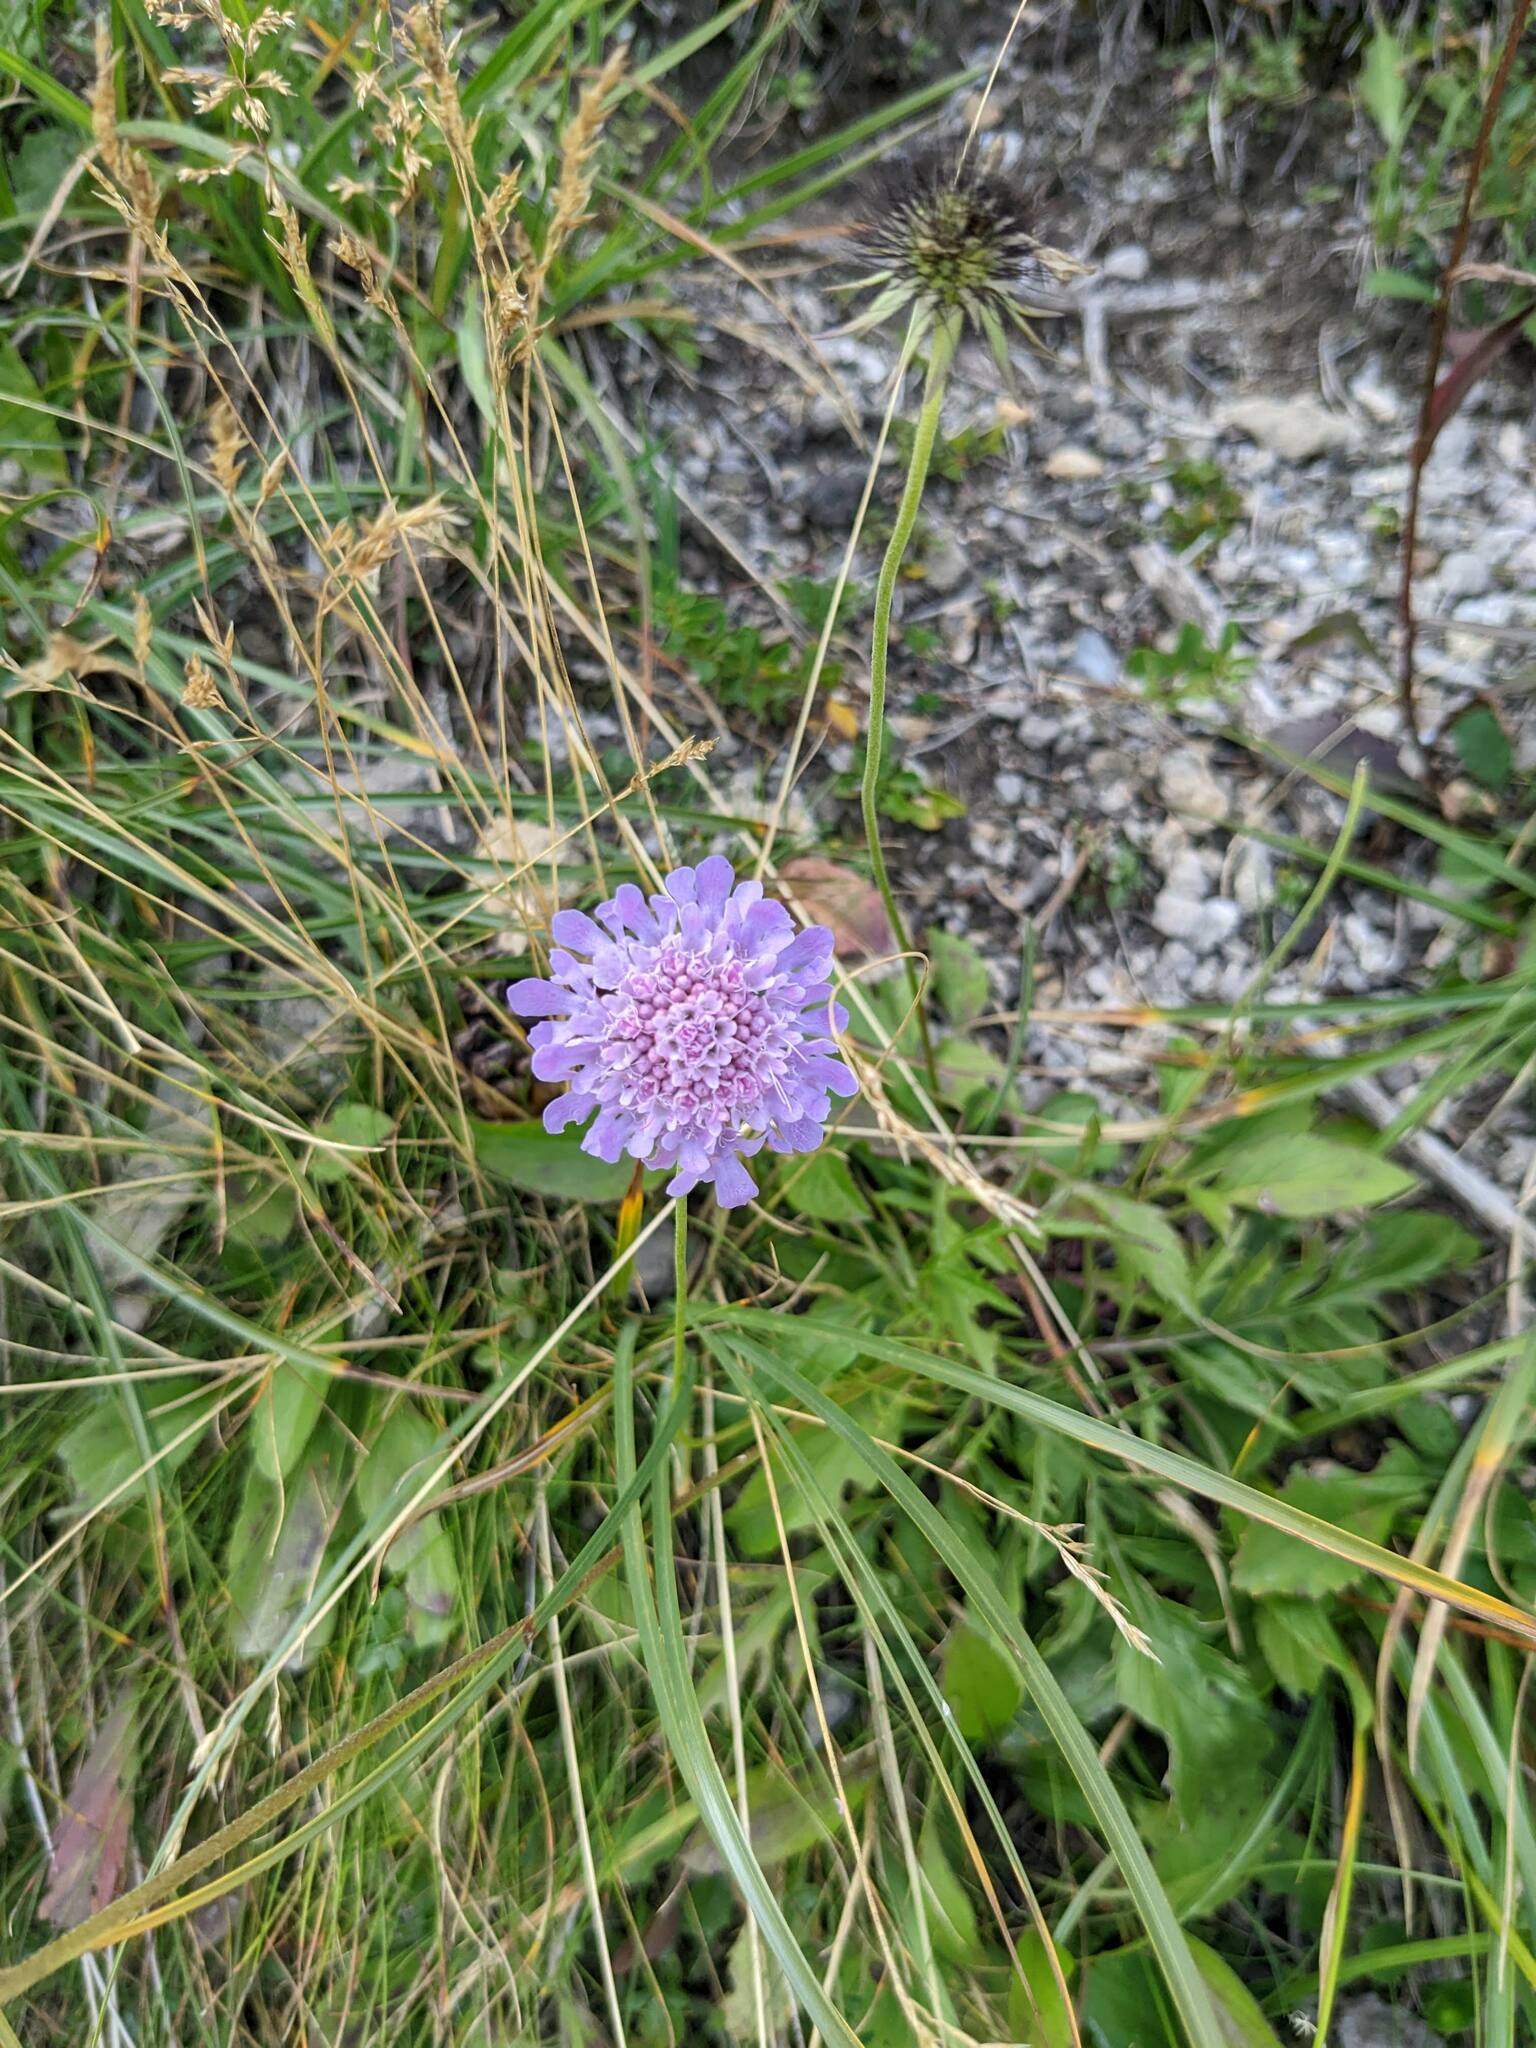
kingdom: Plantae
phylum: Tracheophyta
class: Magnoliopsida
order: Dipsacales
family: Caprifoliaceae
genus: Scabiosa
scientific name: Scabiosa lucida
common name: Shining scabious
